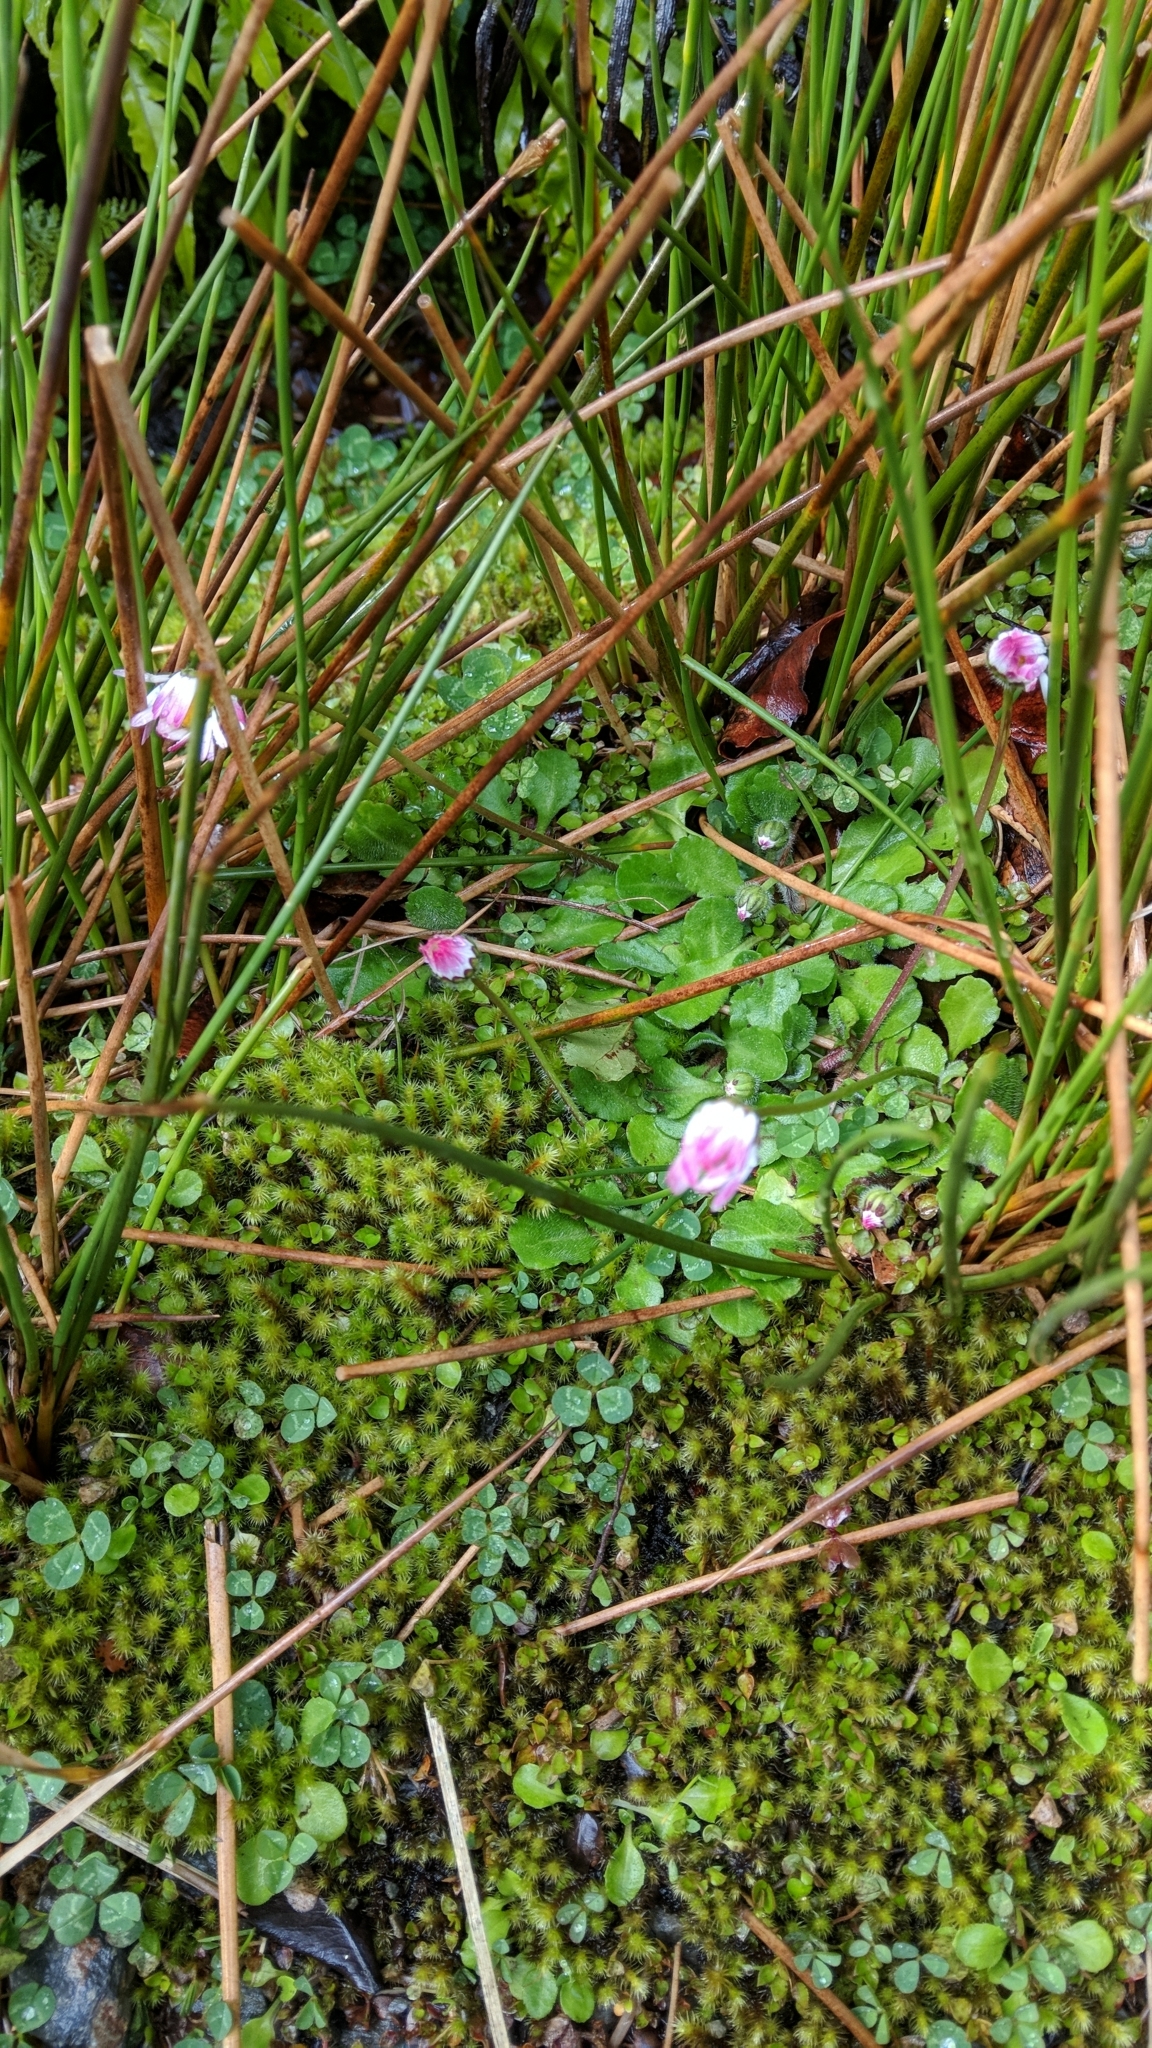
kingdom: Plantae
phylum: Tracheophyta
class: Magnoliopsida
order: Asterales
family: Asteraceae
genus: Bellis
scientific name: Bellis perennis
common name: Lawndaisy
